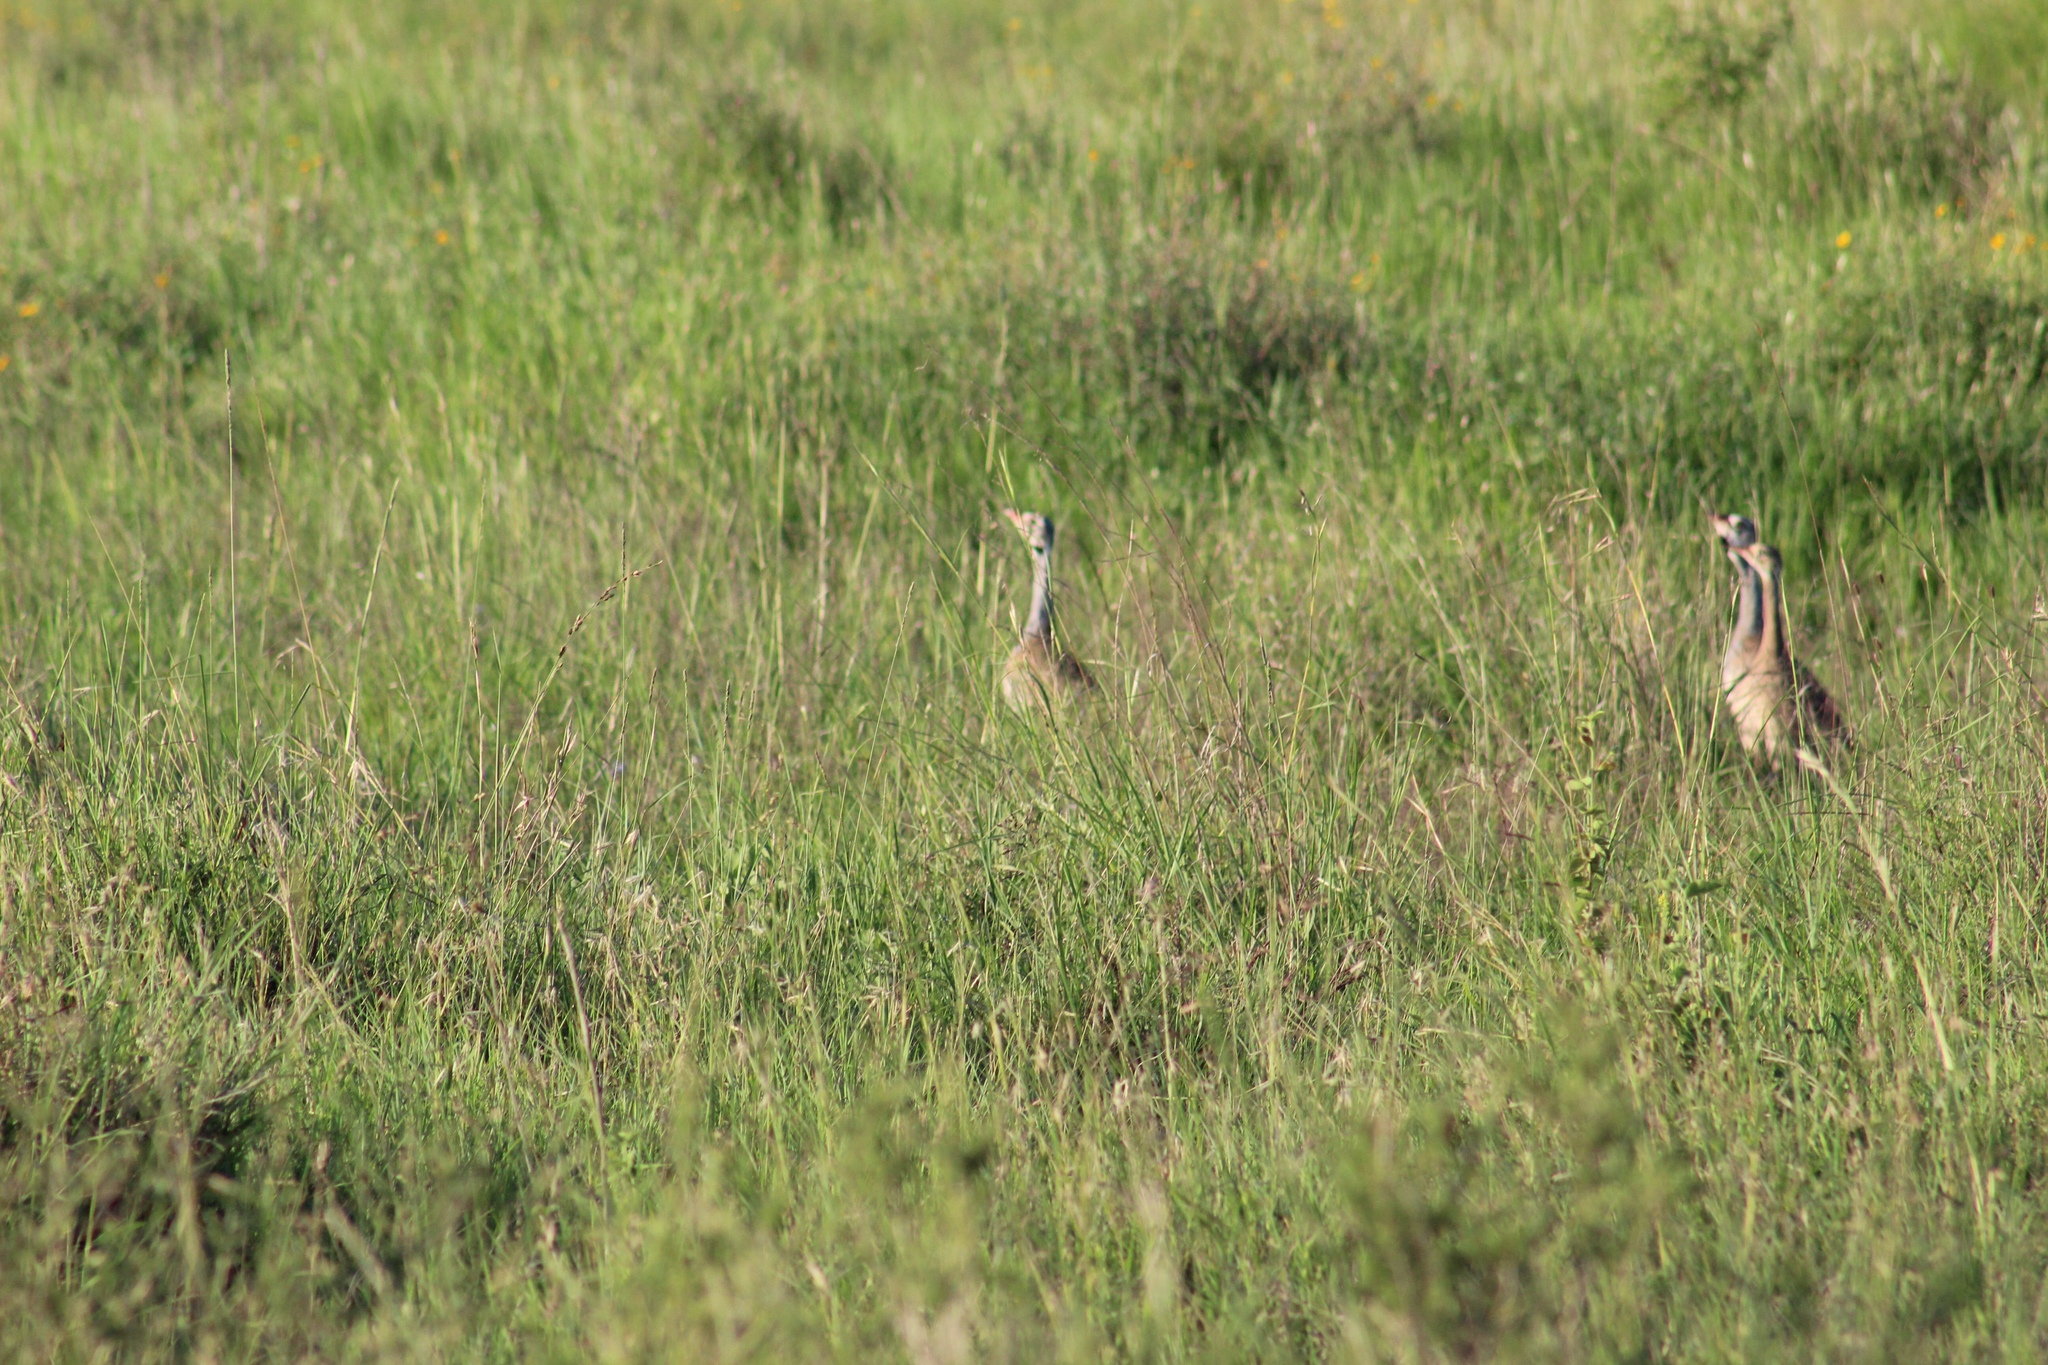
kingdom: Animalia
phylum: Chordata
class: Aves
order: Otidiformes
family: Otididae
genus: Eupodotis
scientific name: Eupodotis senegalensis
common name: White-bellied bustard
